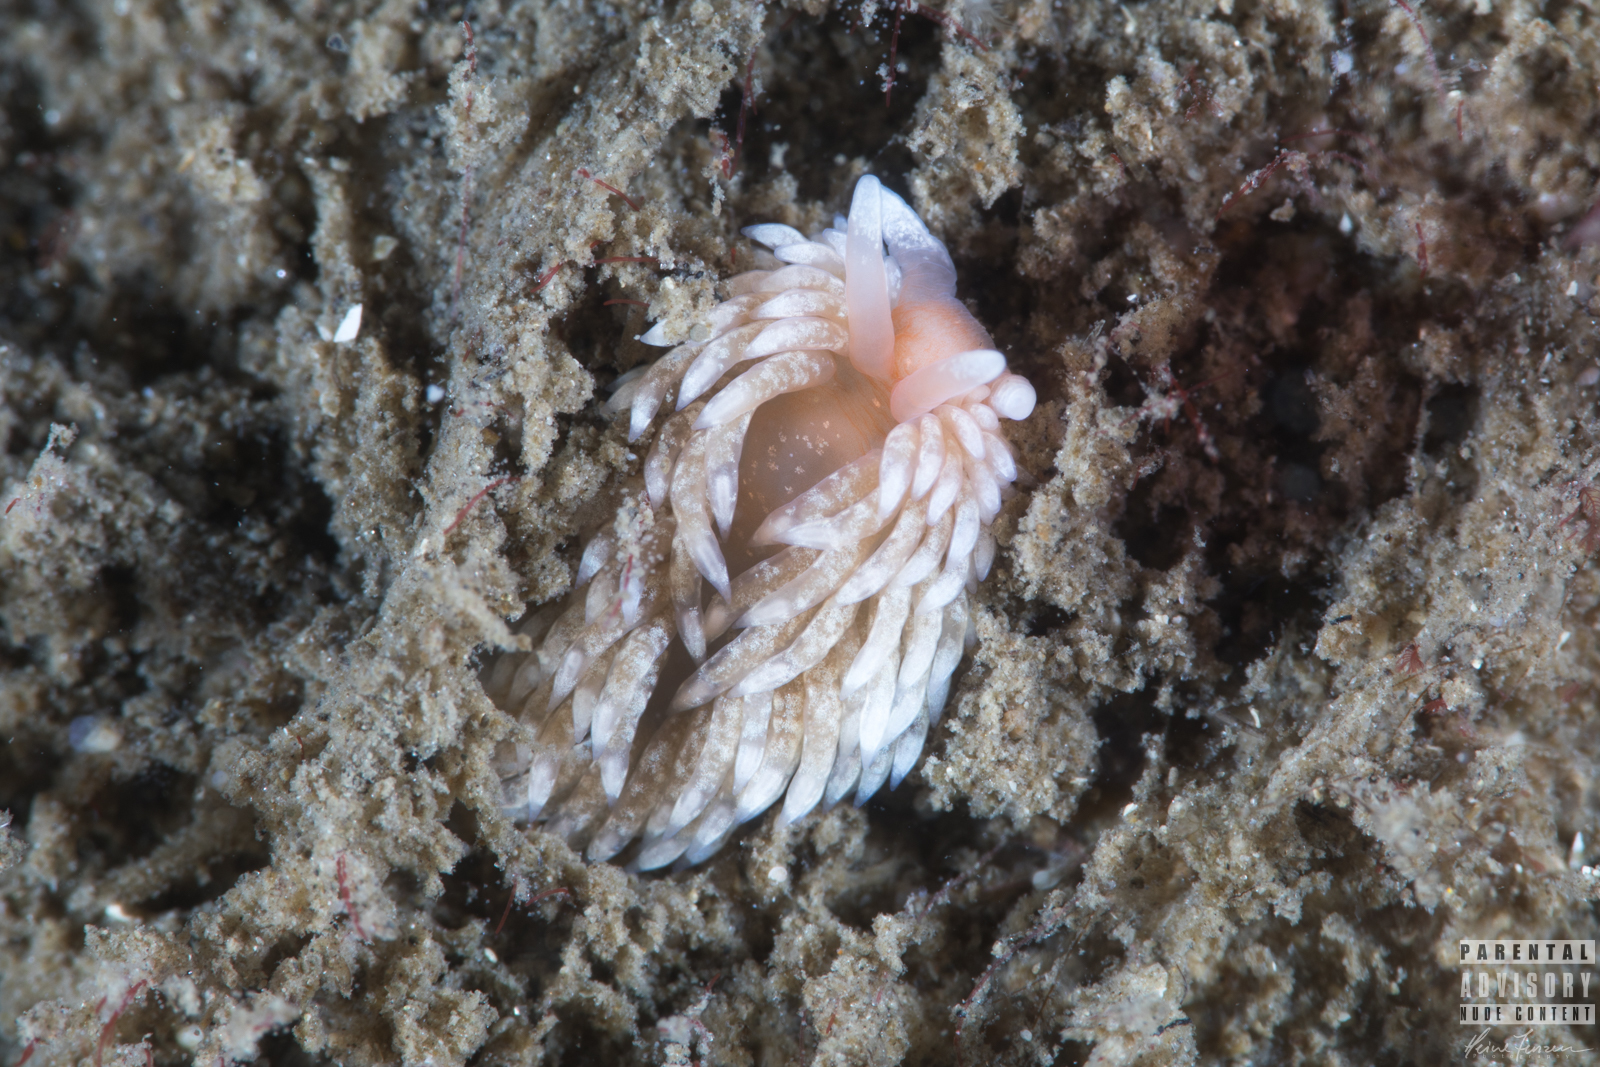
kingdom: Animalia
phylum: Mollusca
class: Gastropoda
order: Nudibranchia
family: Aeolidiidae
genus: Aeolidiella
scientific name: Aeolidiella glauca
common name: Orange-brown aeolid
